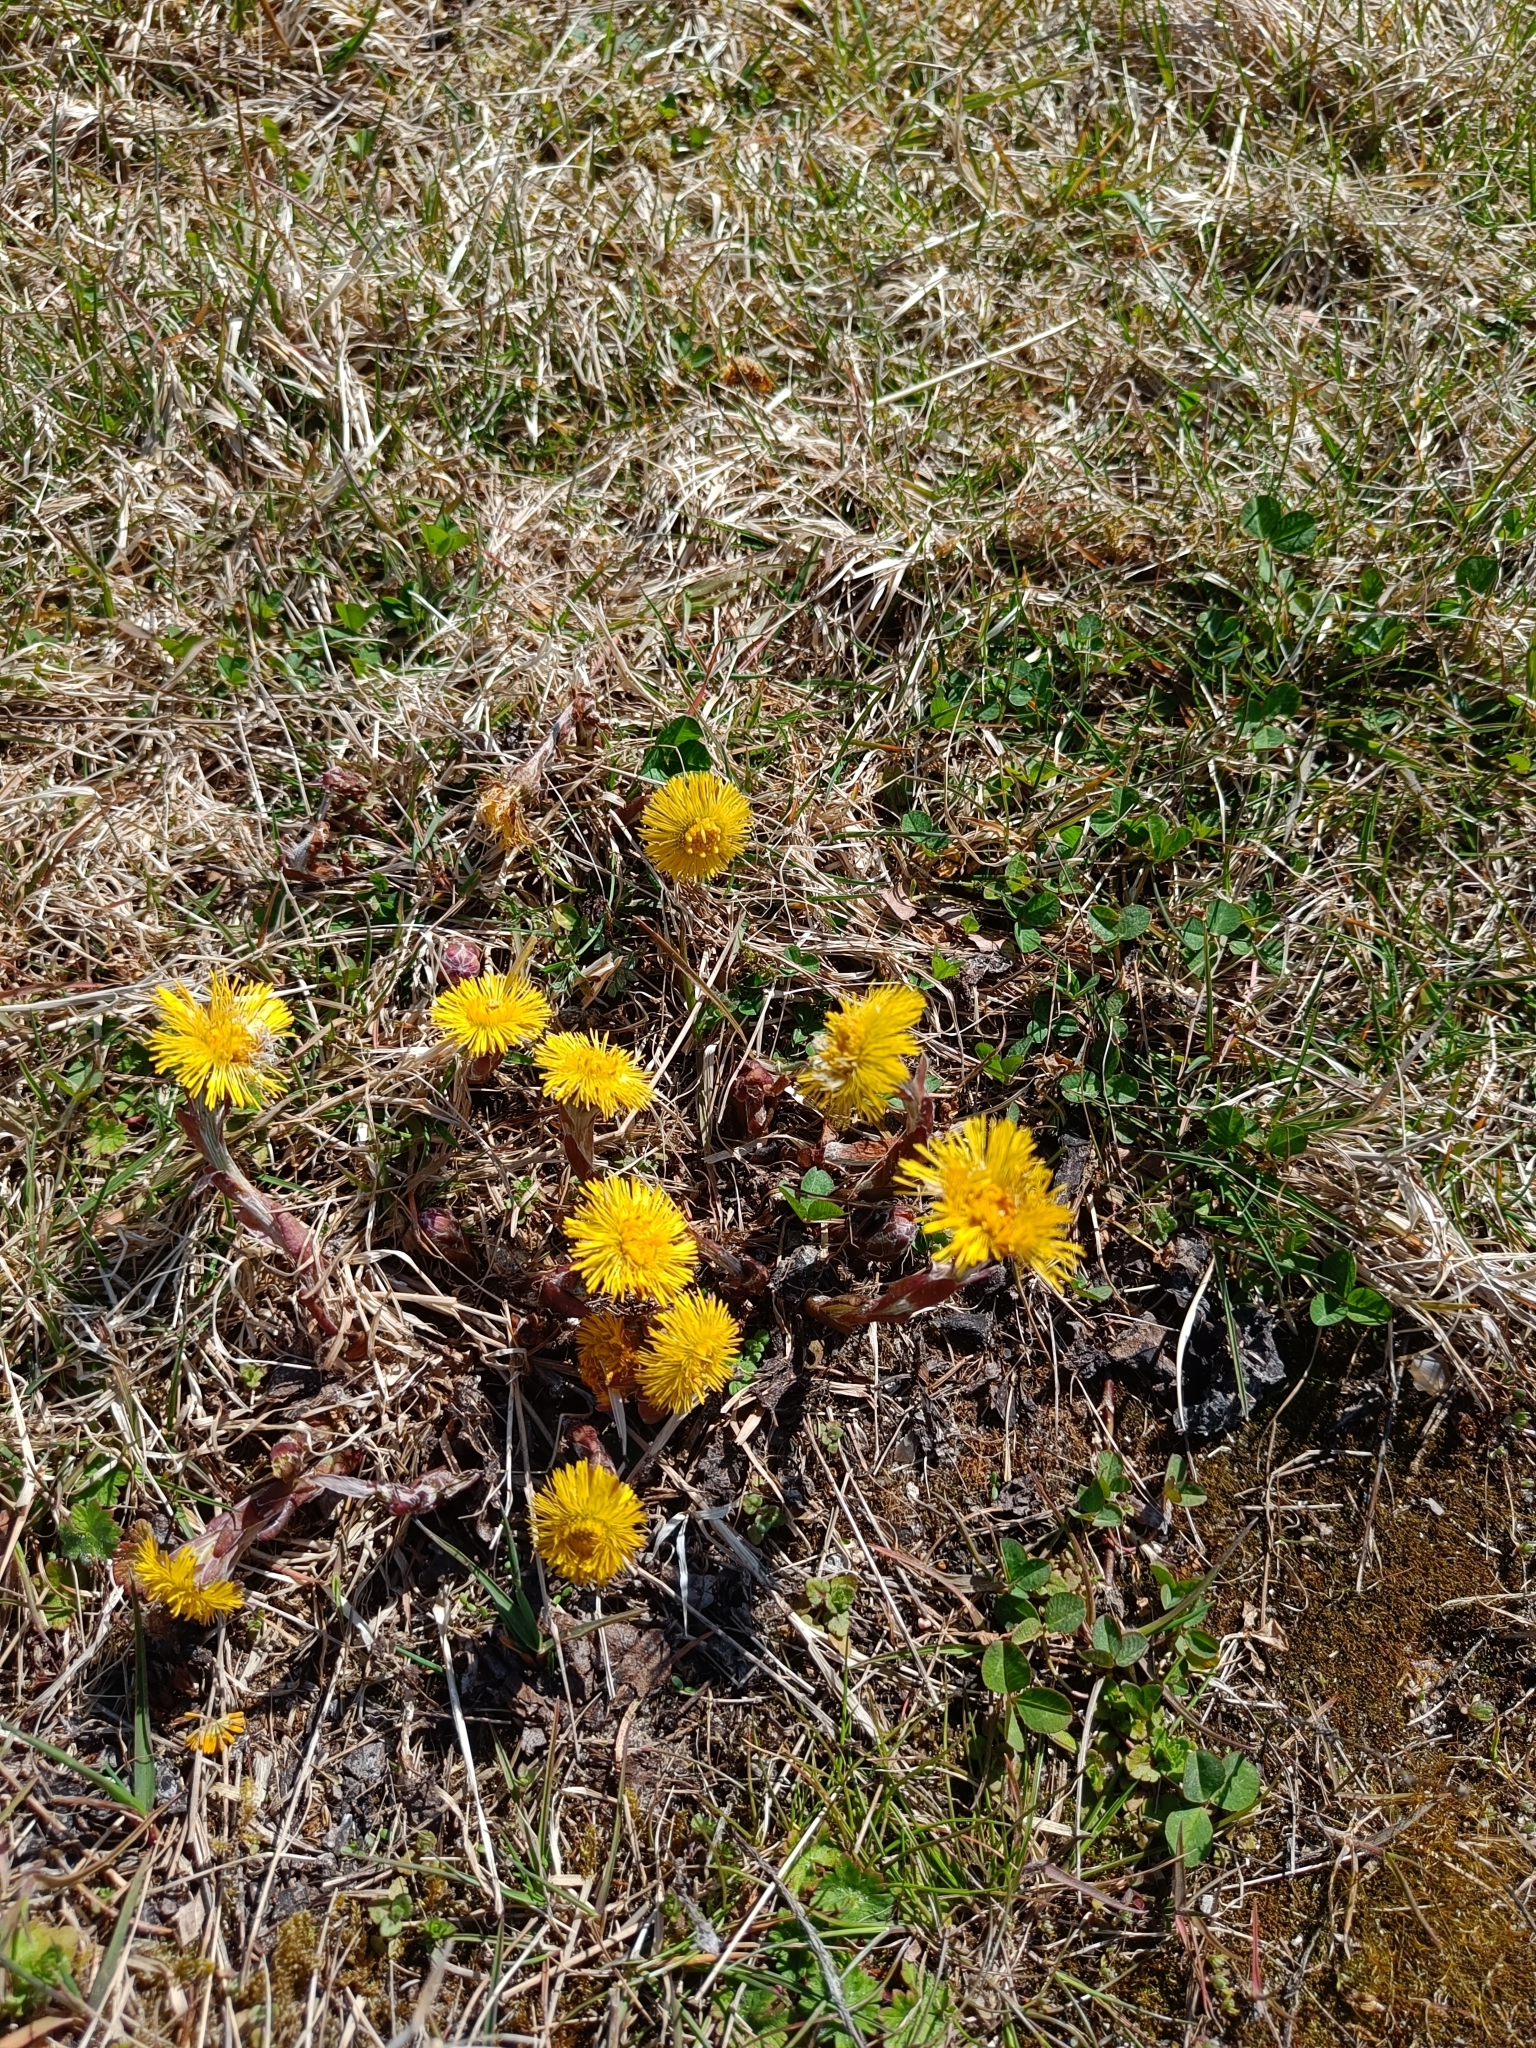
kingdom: Plantae
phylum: Tracheophyta
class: Magnoliopsida
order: Asterales
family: Asteraceae
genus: Tussilago
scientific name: Tussilago farfara
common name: Coltsfoot
